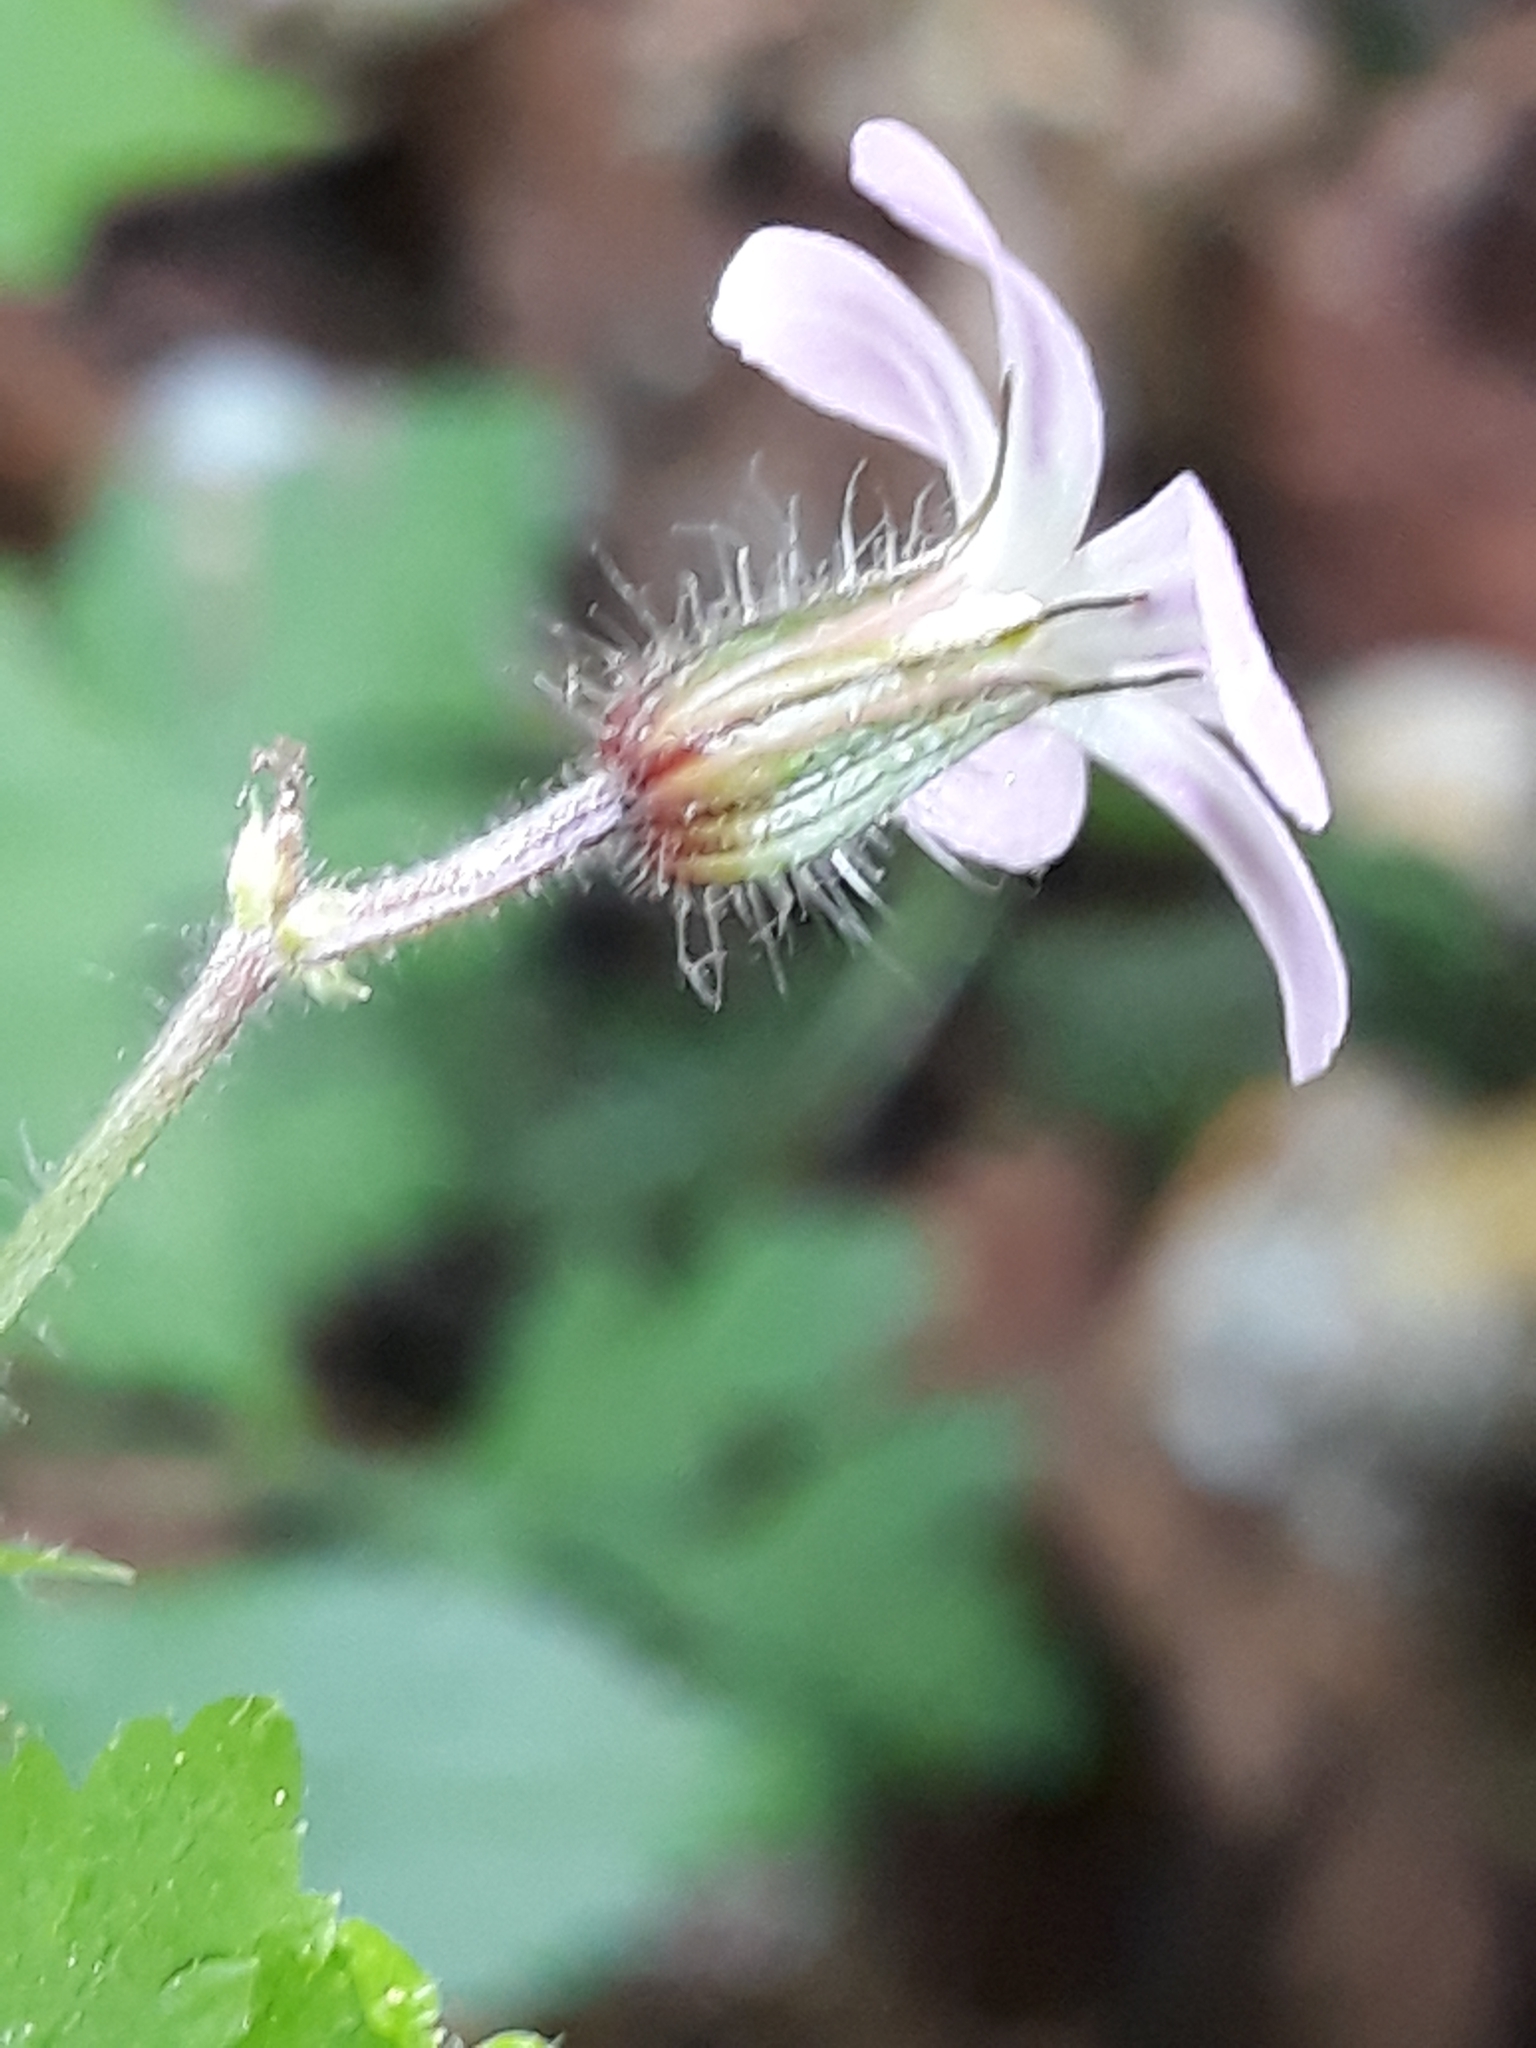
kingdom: Plantae
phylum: Tracheophyta
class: Magnoliopsida
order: Geraniales
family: Geraniaceae
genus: Geranium
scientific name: Geranium robertianum
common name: Herb-robert
